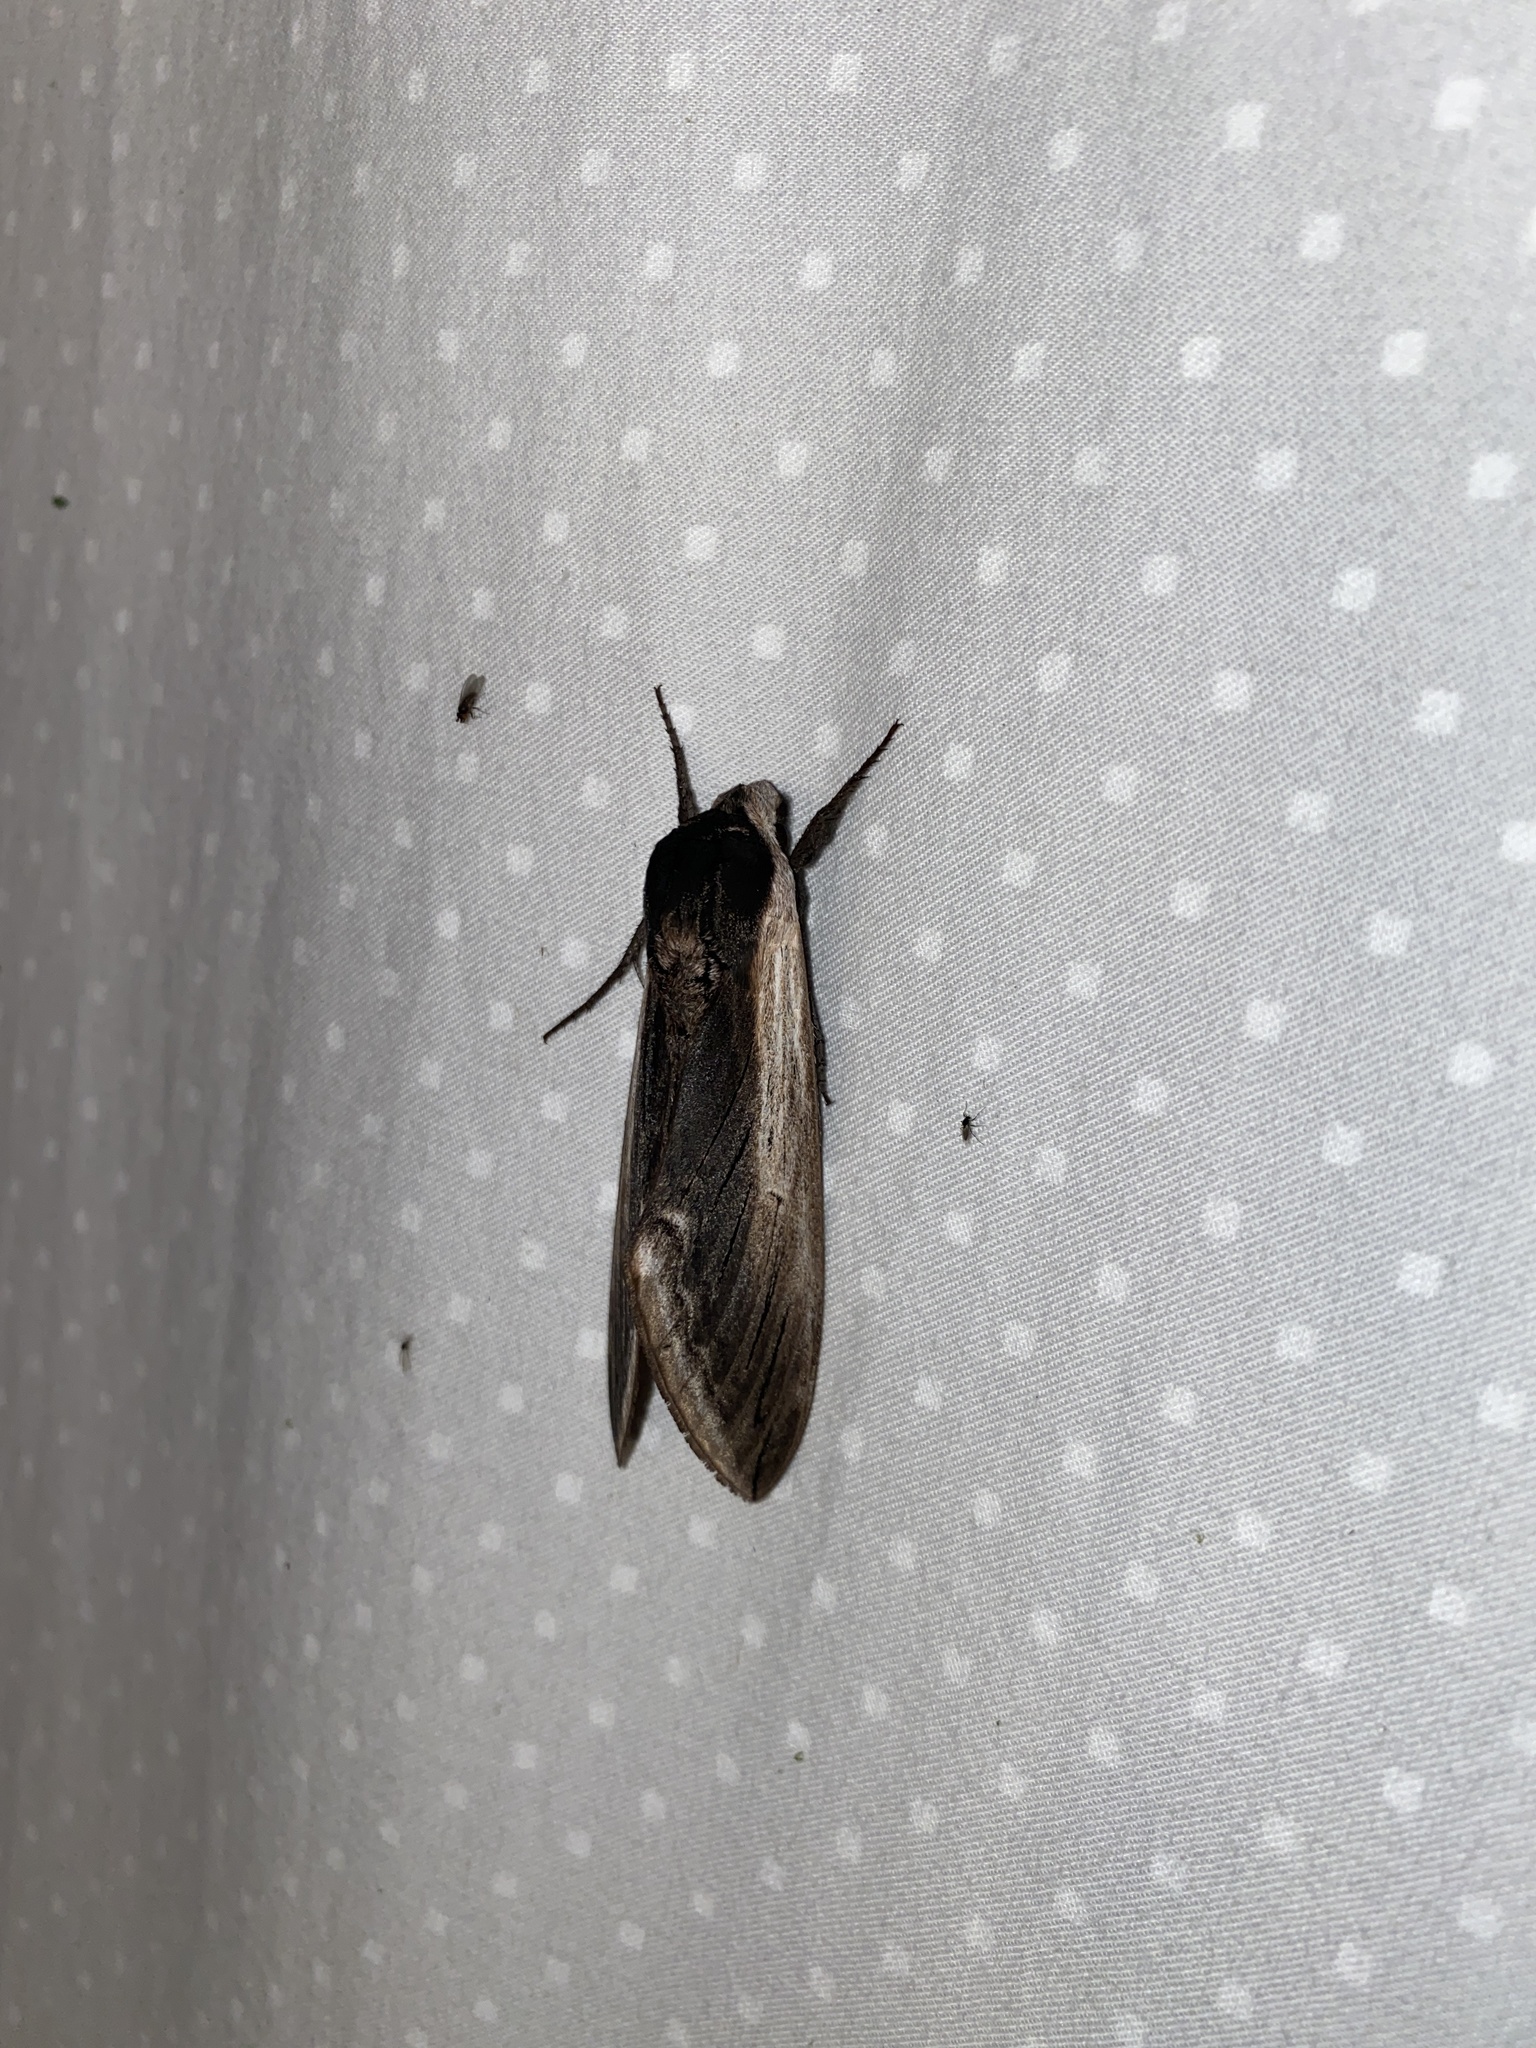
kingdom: Animalia
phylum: Arthropoda
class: Insecta
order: Lepidoptera
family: Sphingidae
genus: Sphinx
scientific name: Sphinx drupiferarum
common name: Wild cherry sphinx
